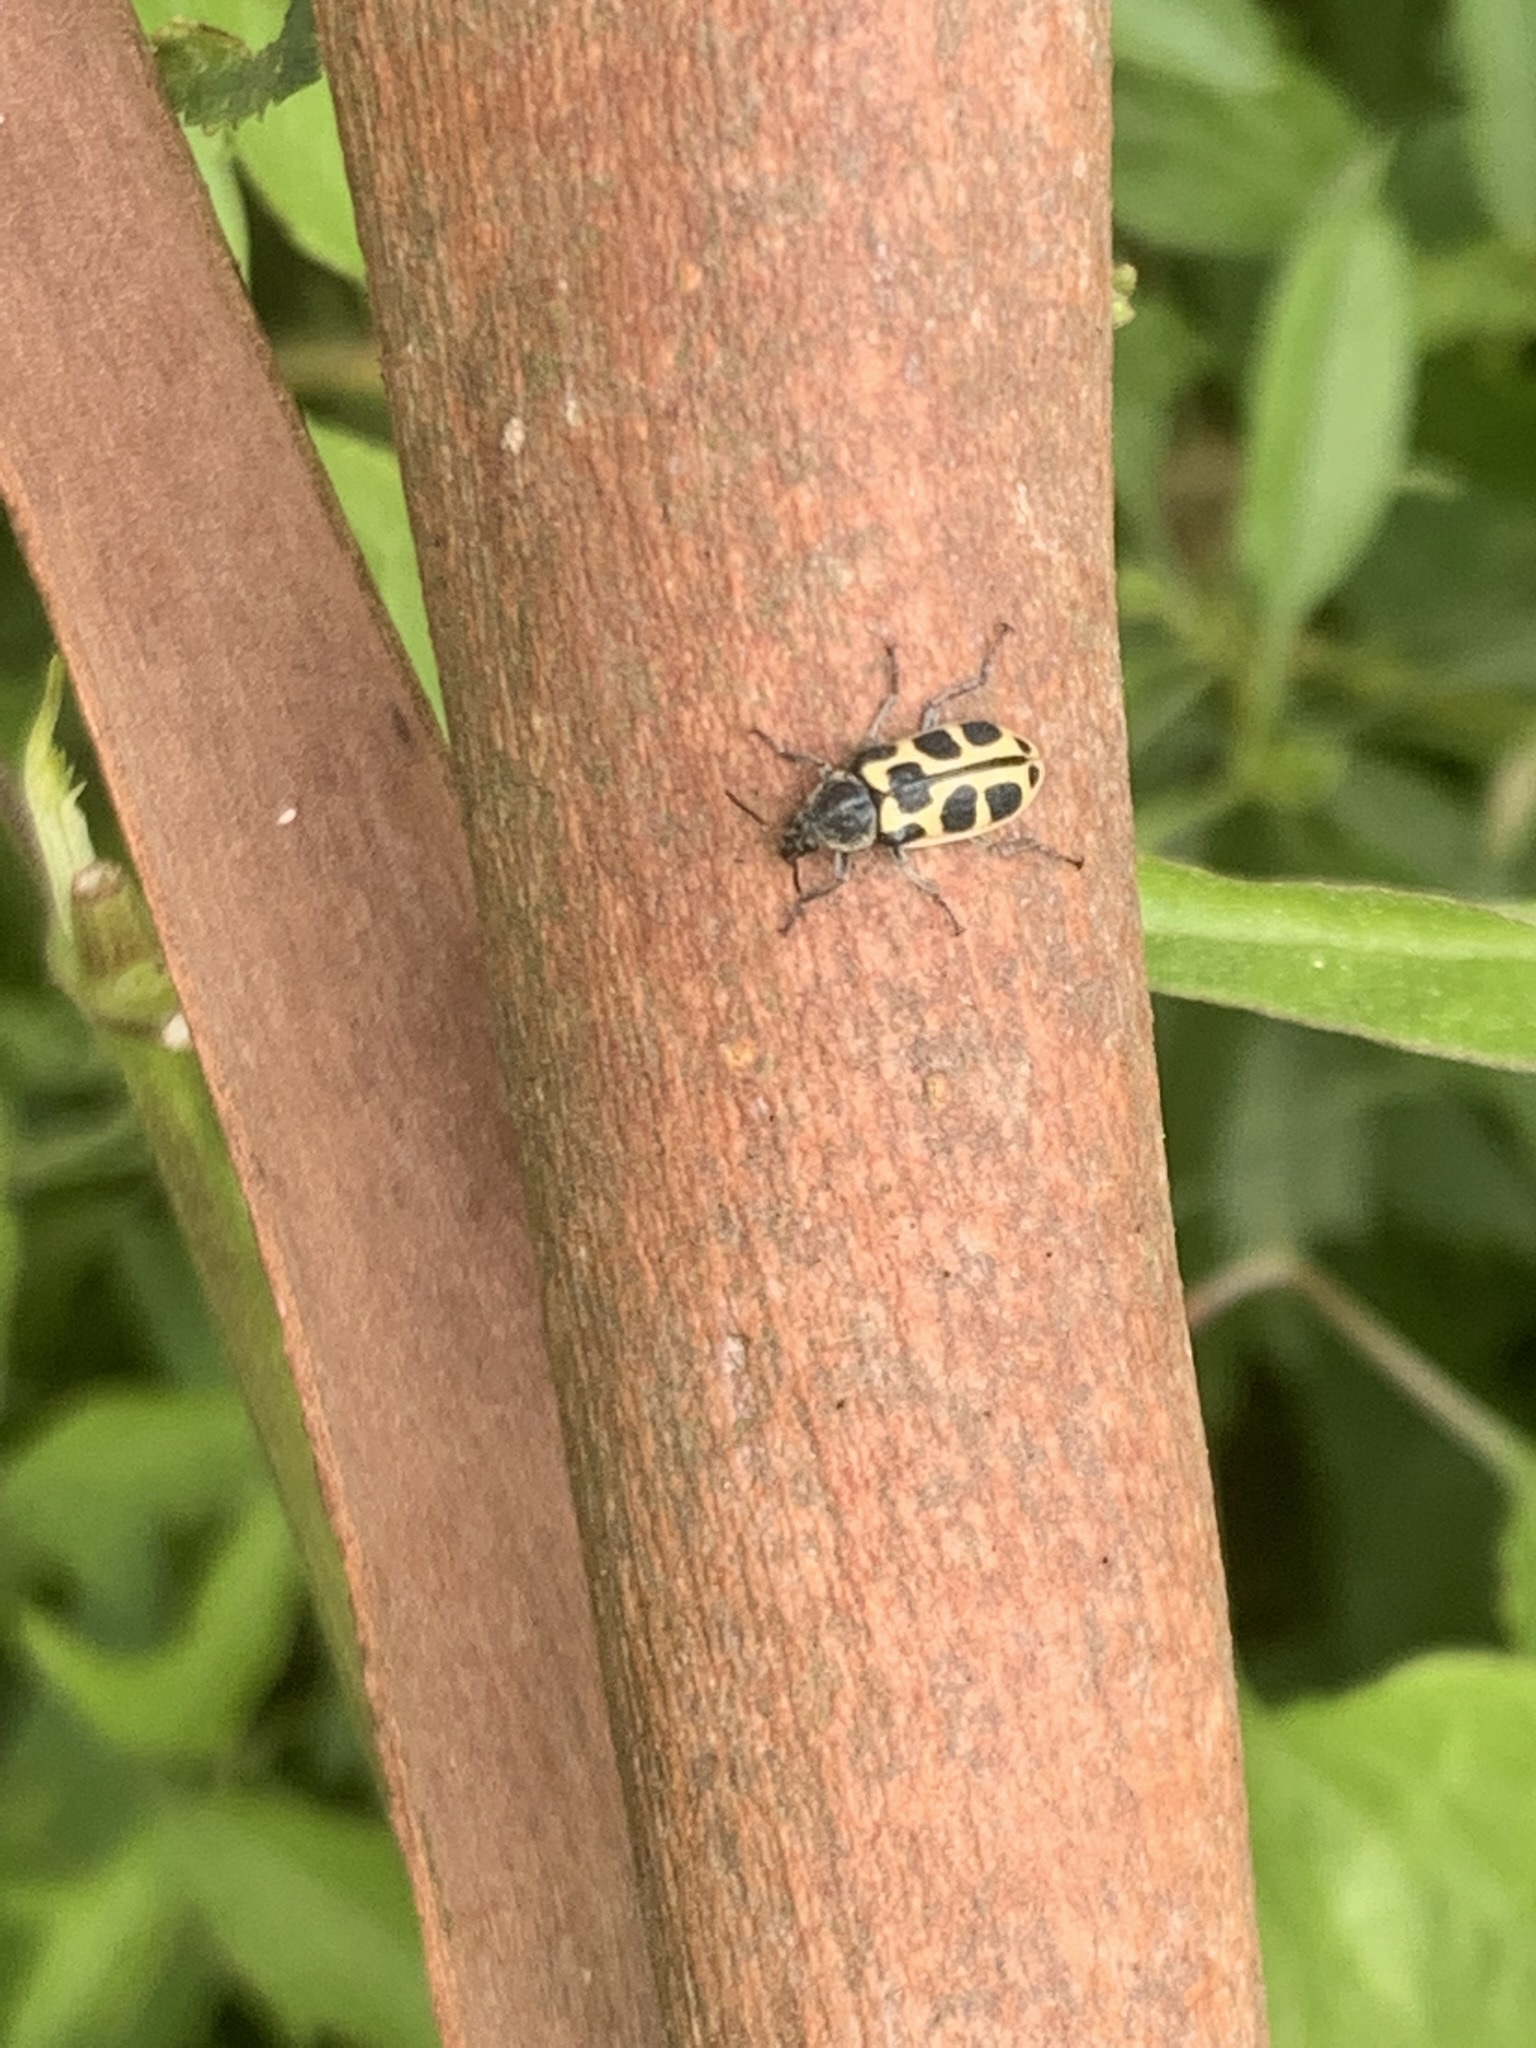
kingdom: Animalia
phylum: Arthropoda
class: Insecta
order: Coleoptera
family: Melyridae
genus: Astylus
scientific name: Astylus atromaculatus
